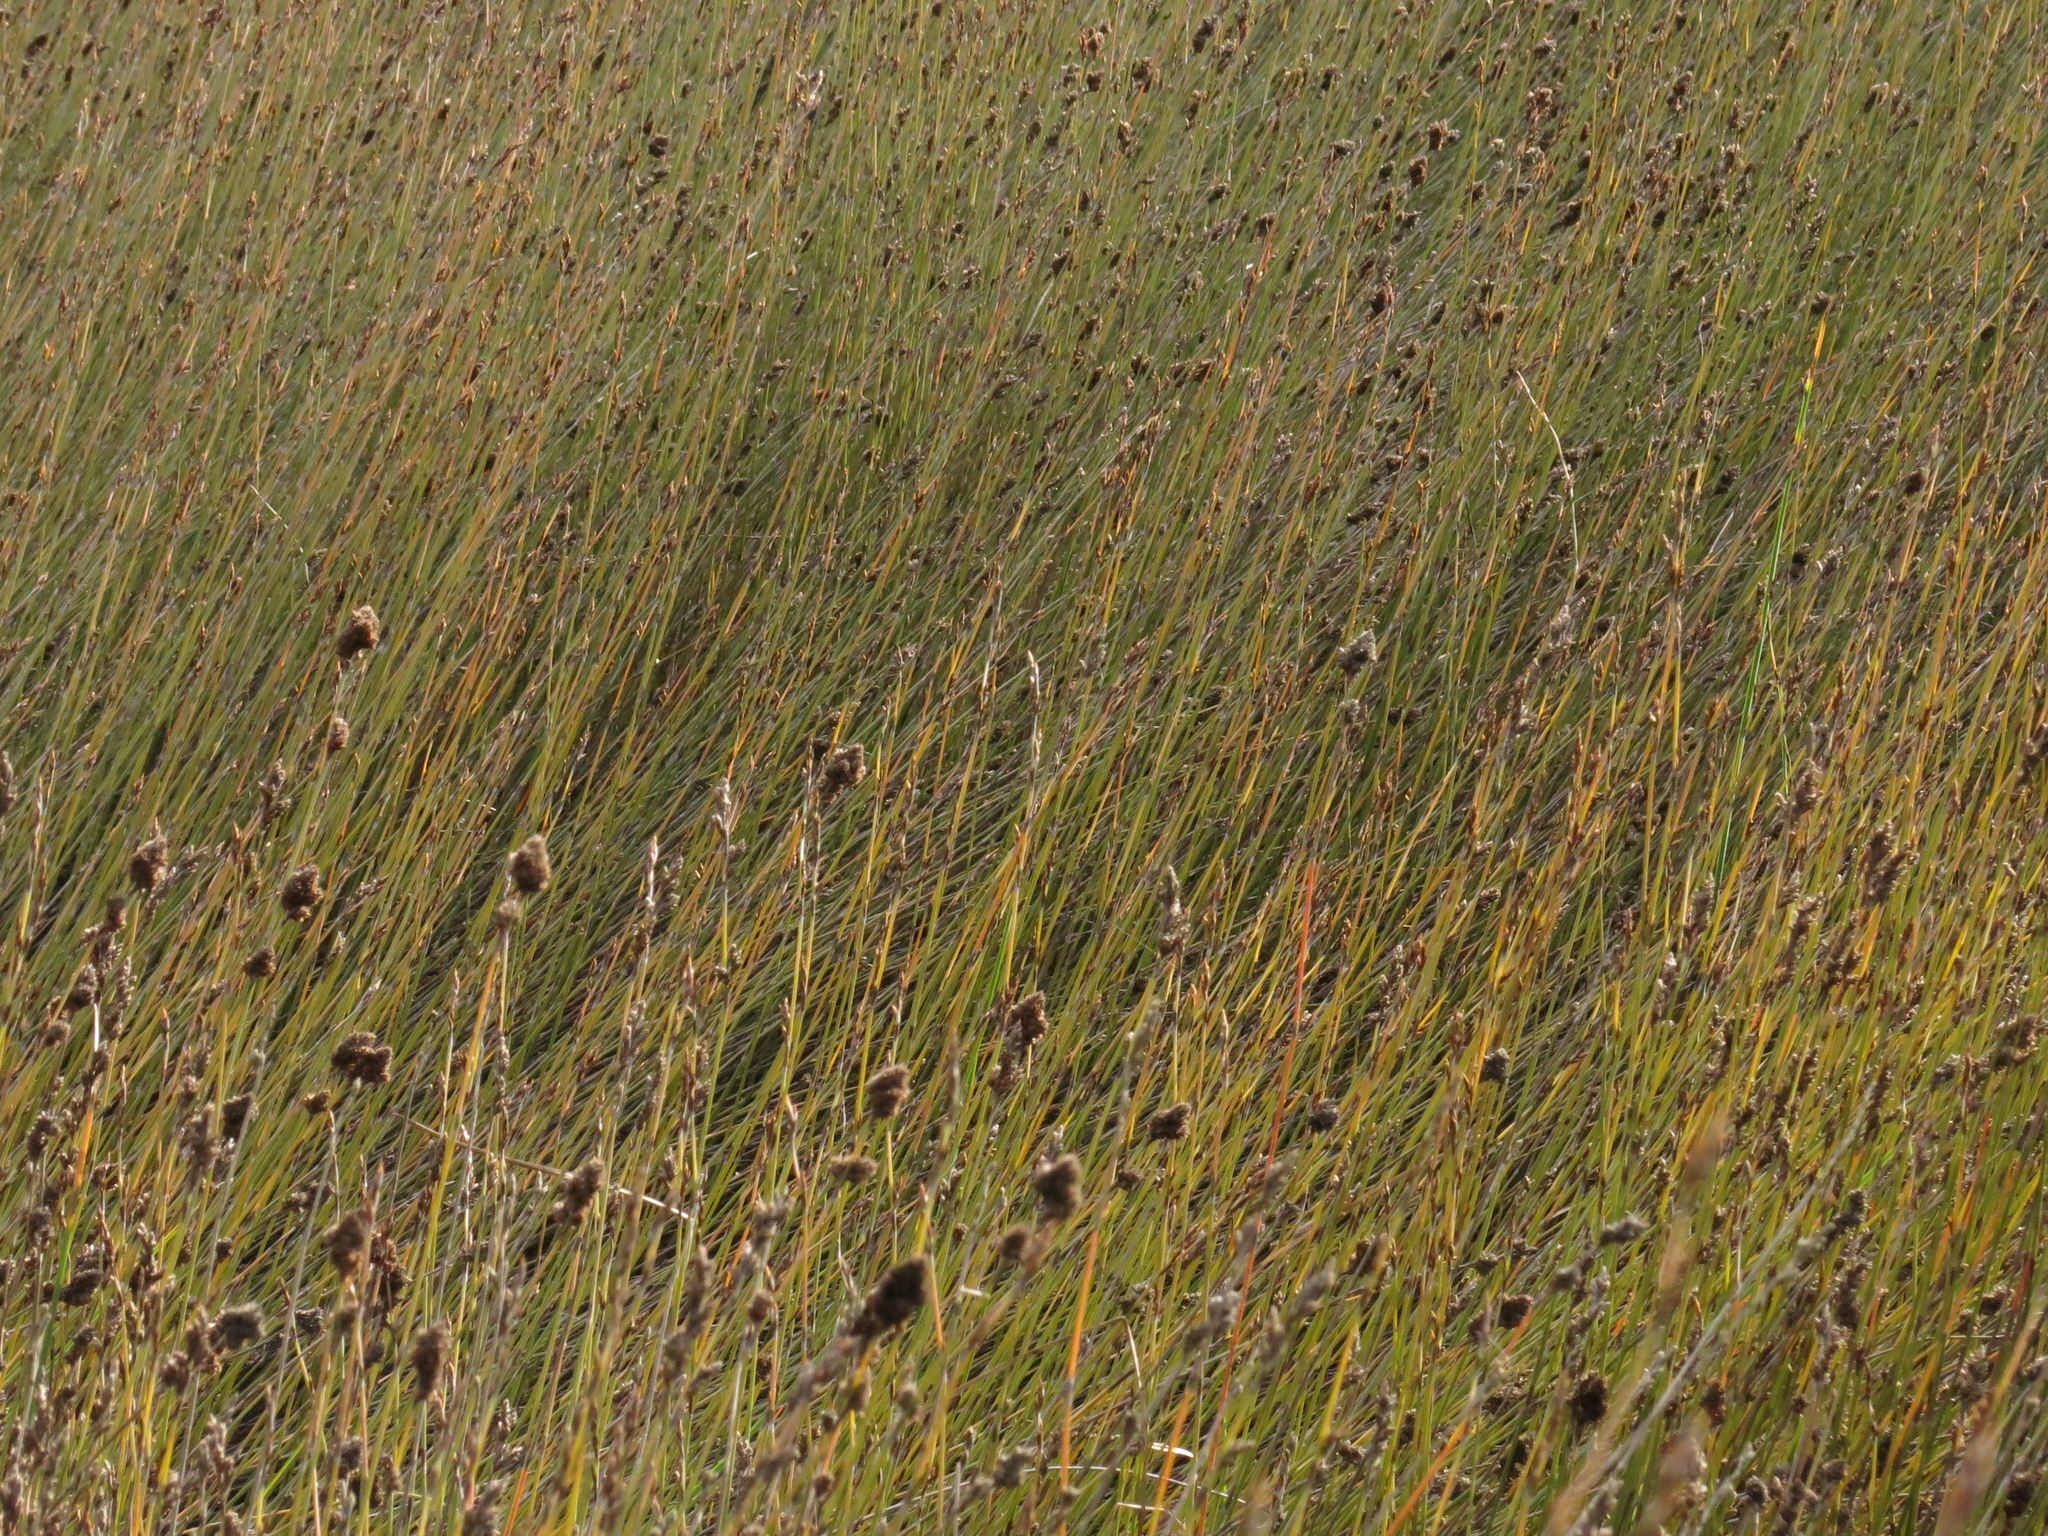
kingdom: Plantae
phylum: Tracheophyta
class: Liliopsida
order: Poales
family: Restionaceae
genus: Apodasmia
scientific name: Apodasmia similis
